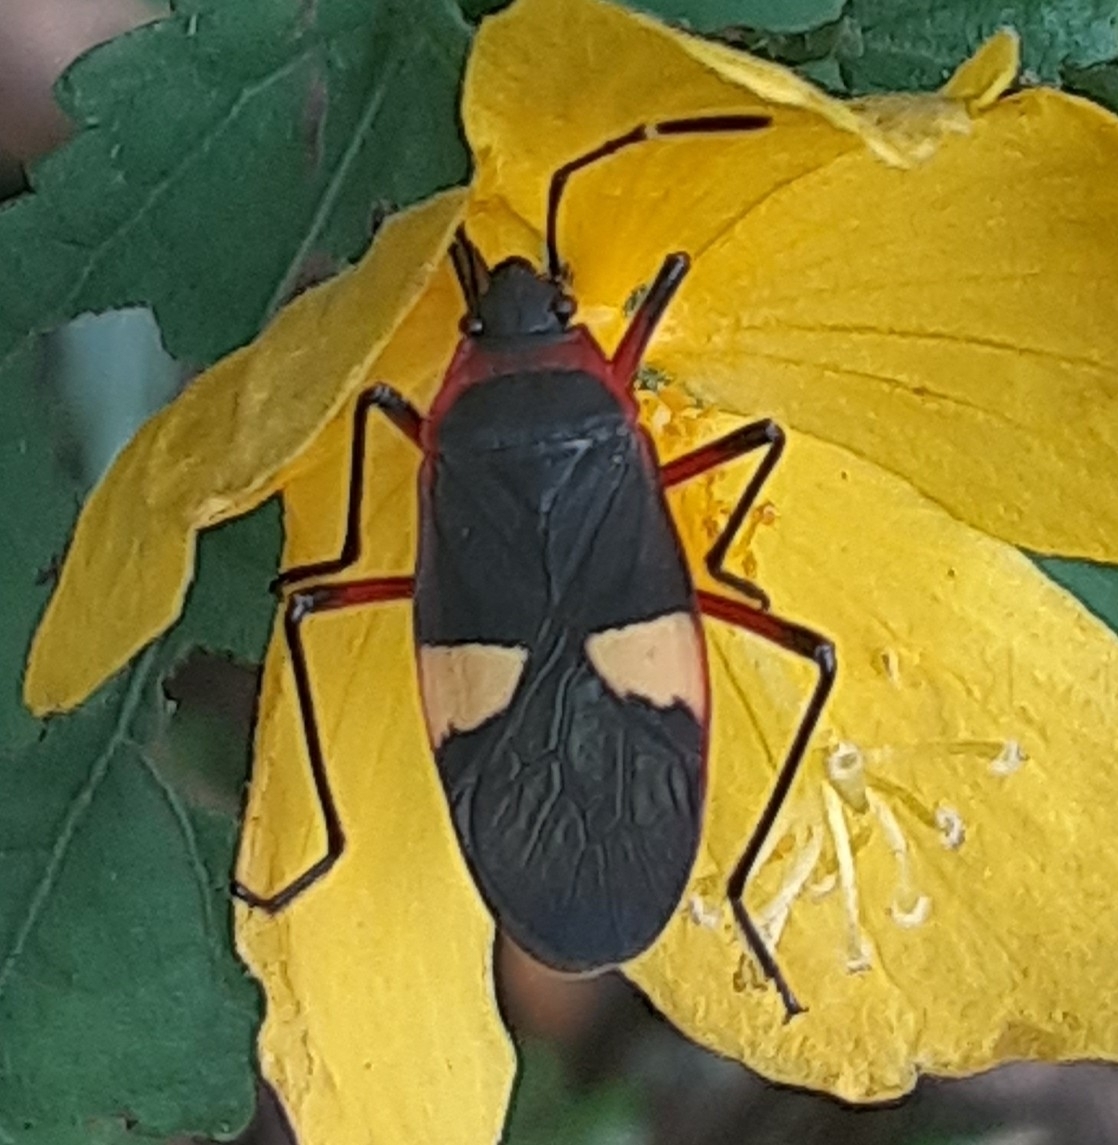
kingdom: Animalia
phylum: Arthropoda
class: Insecta
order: Hemiptera
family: Pyrrhocoridae
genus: Dysdercus
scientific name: Dysdercus albofasciatus
